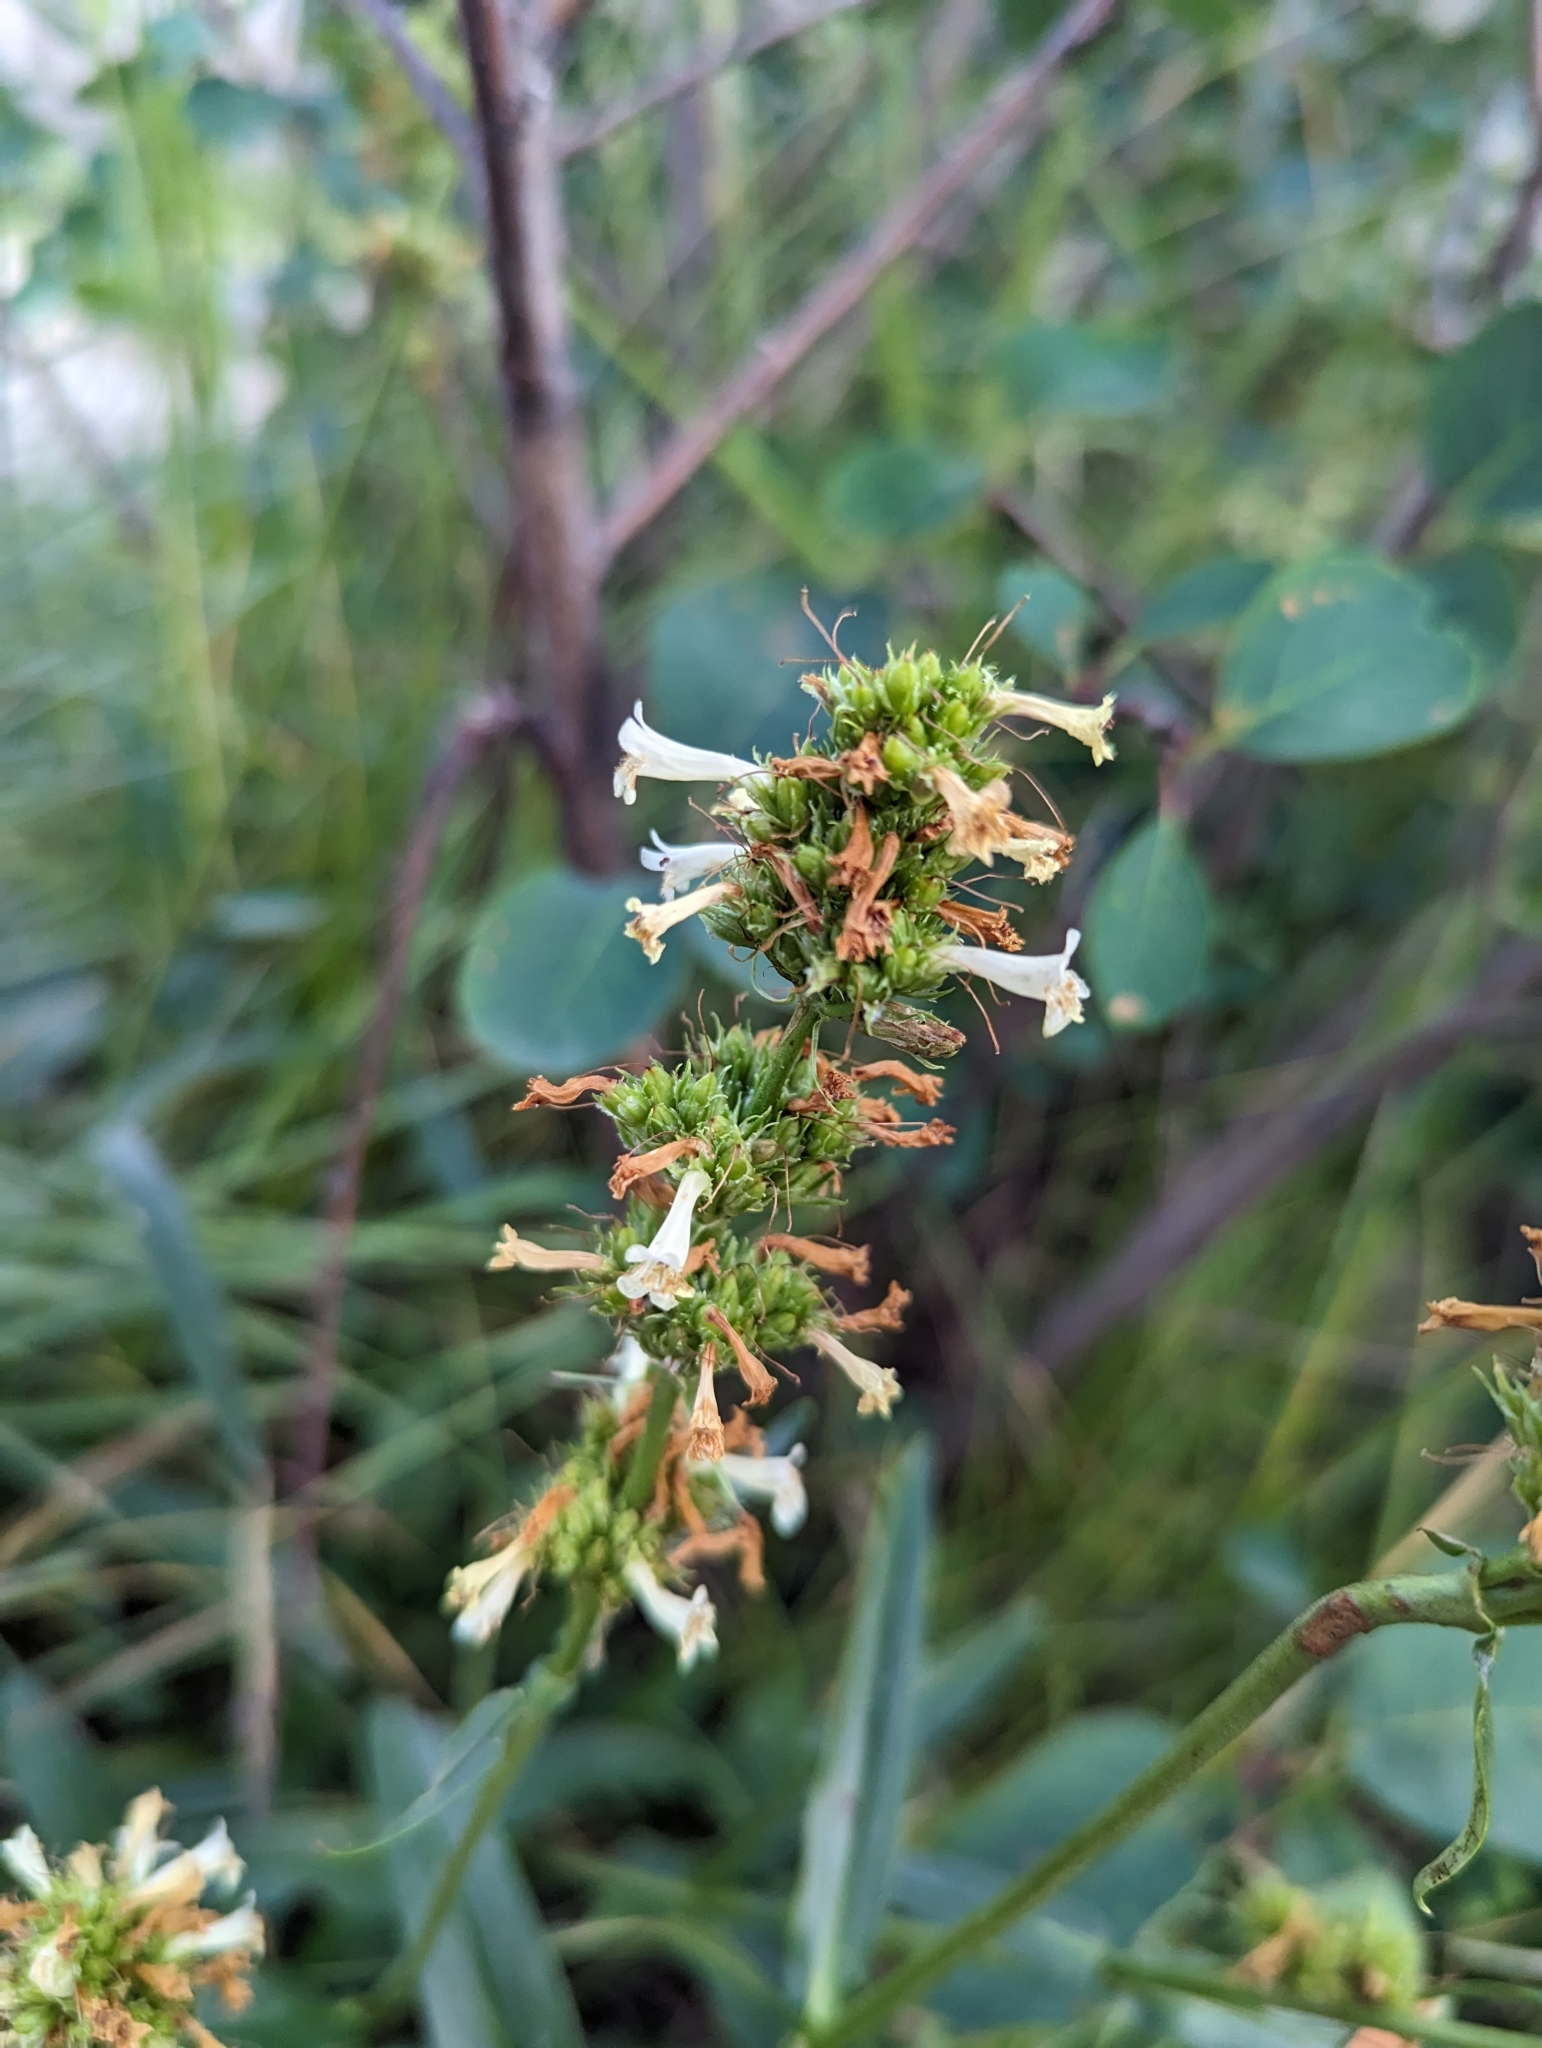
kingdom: Plantae
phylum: Tracheophyta
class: Magnoliopsida
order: Lamiales
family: Plantaginaceae
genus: Penstemon
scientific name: Penstemon confertus
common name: Lesser yellow beardtongue
